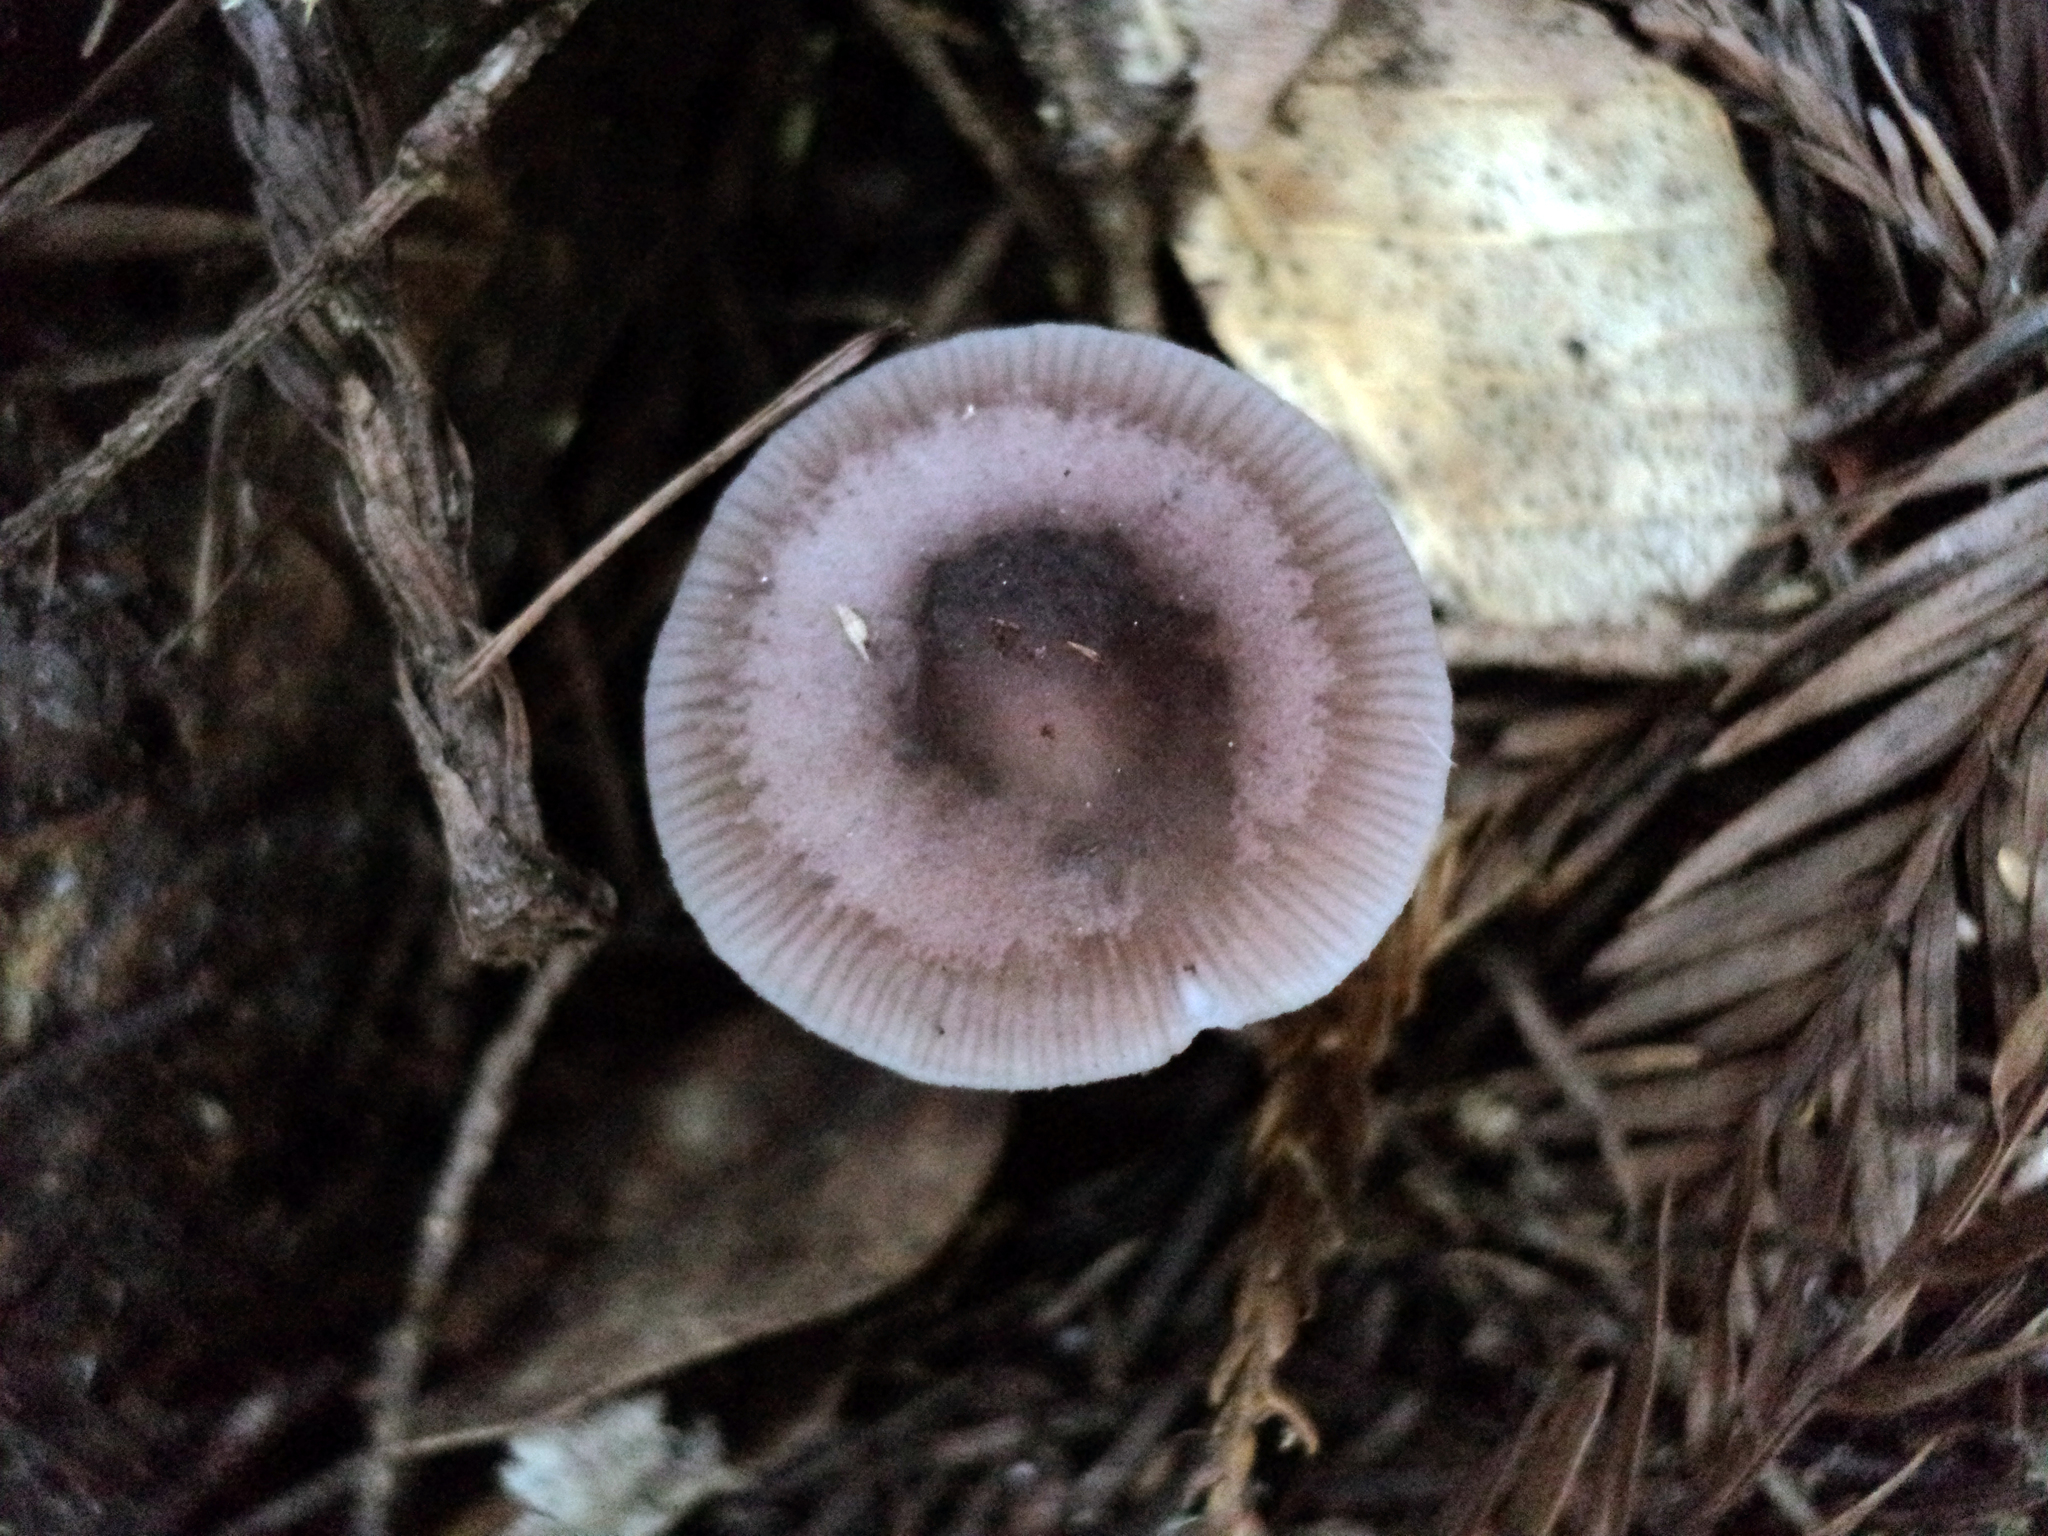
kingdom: Fungi
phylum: Basidiomycota
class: Agaricomycetes
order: Agaricales
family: Mycenaceae
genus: Mycena
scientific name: Mycena pura
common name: Lilac bonnet
